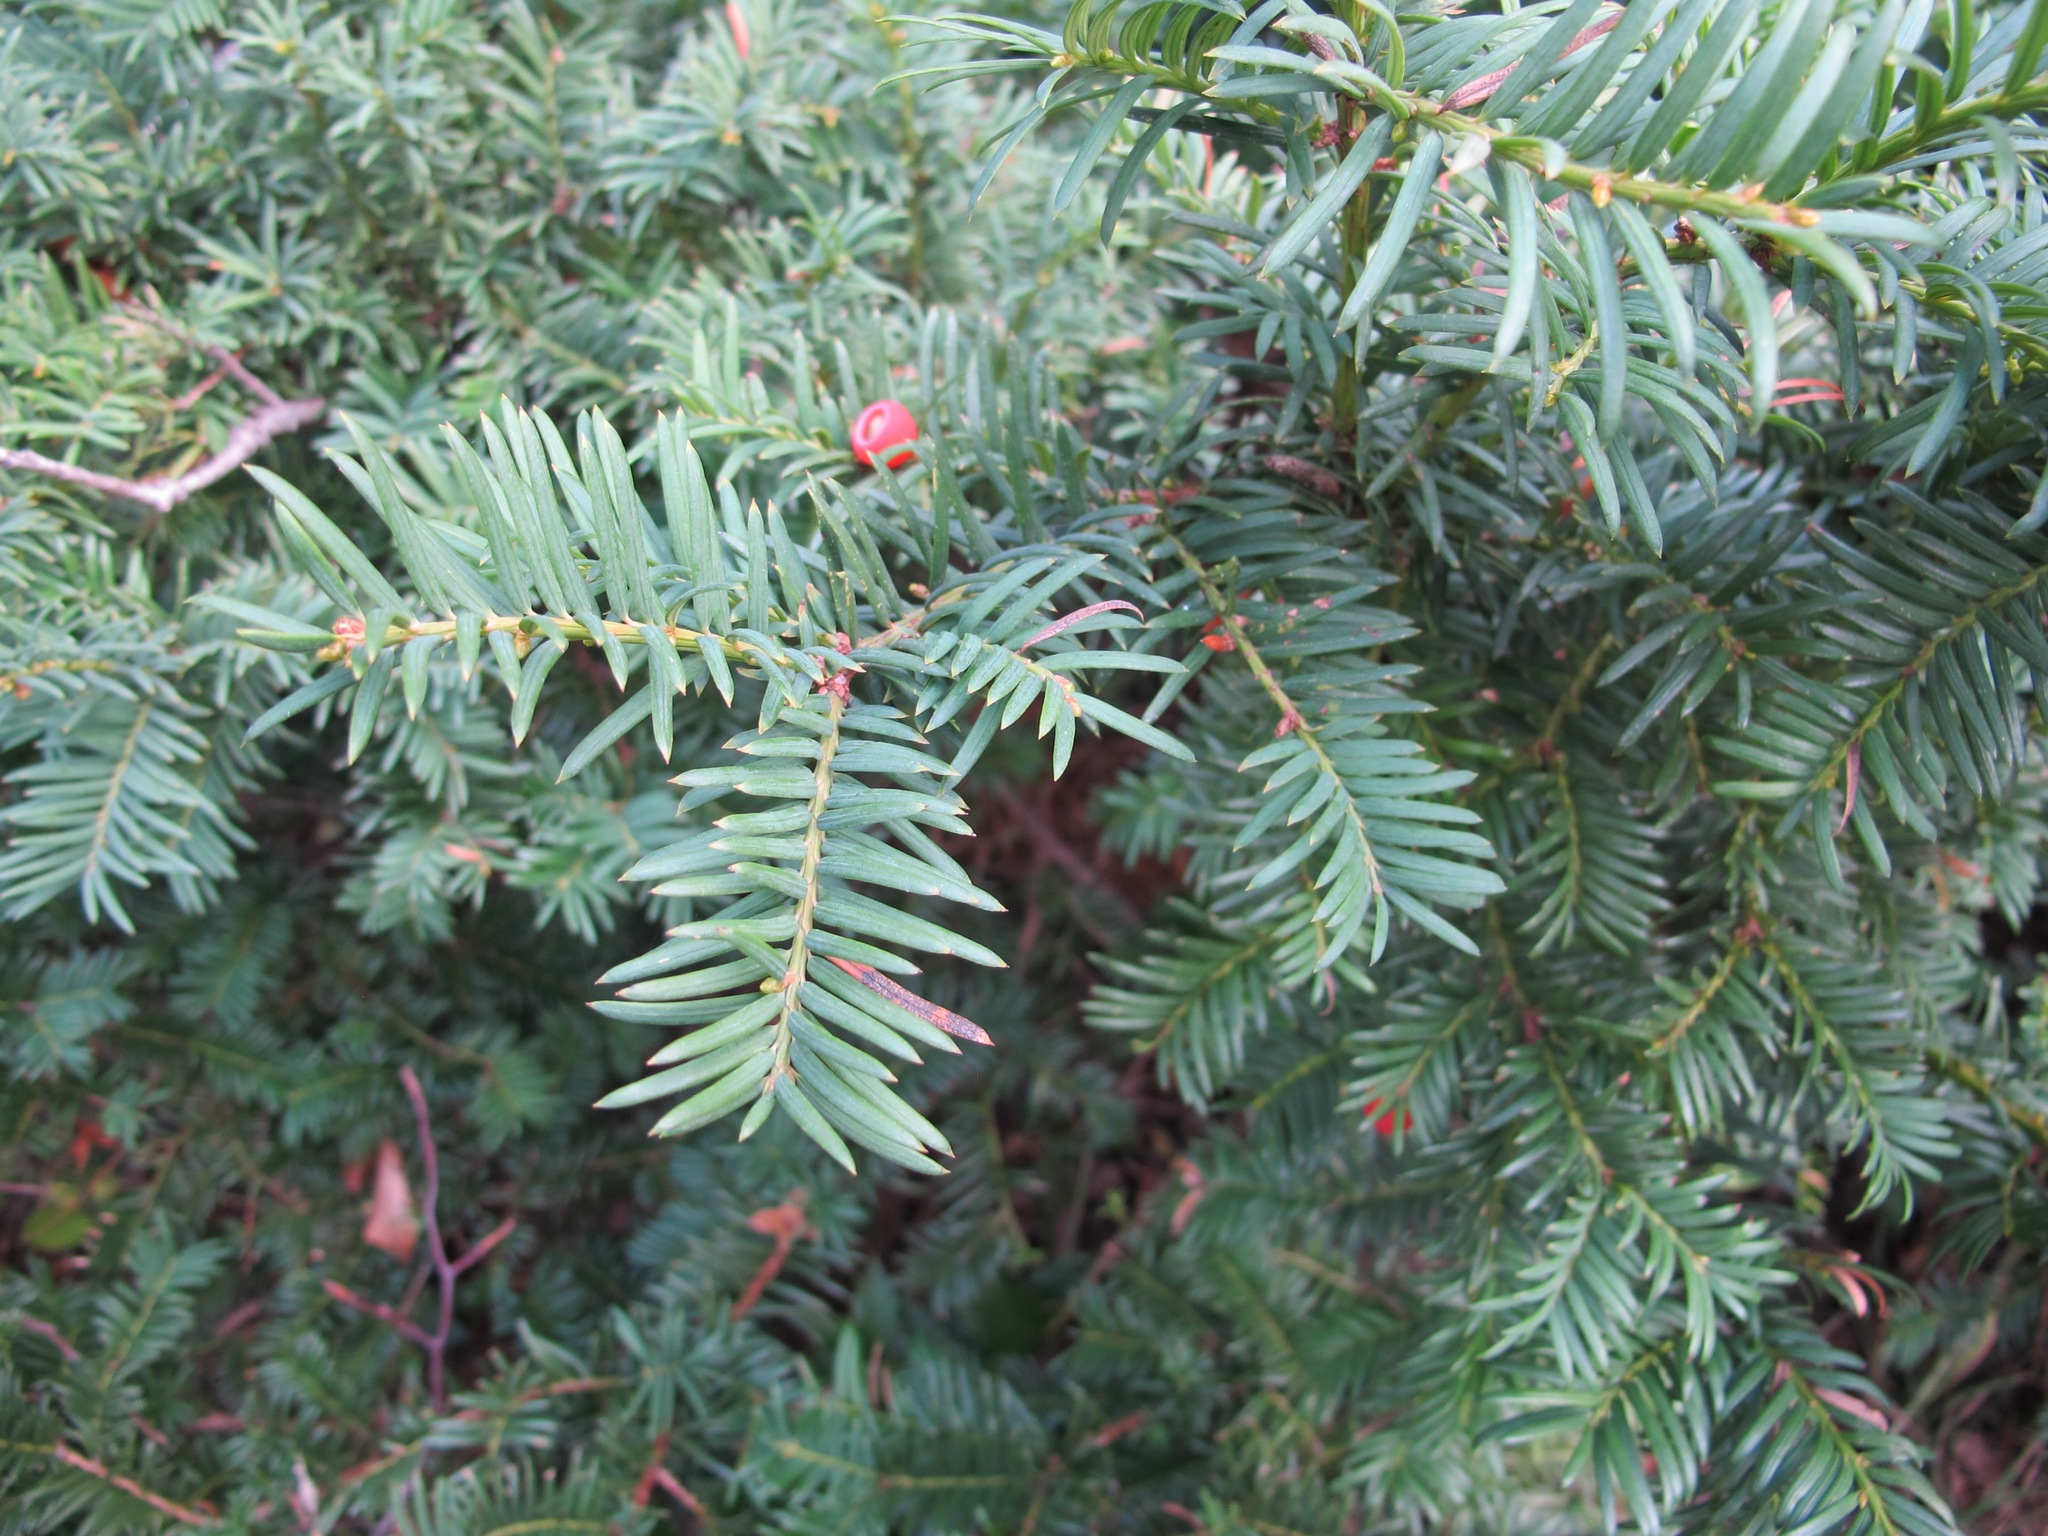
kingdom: Plantae
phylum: Tracheophyta
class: Pinopsida
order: Pinales
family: Taxaceae
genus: Taxus
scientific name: Taxus baccata
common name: Yew
